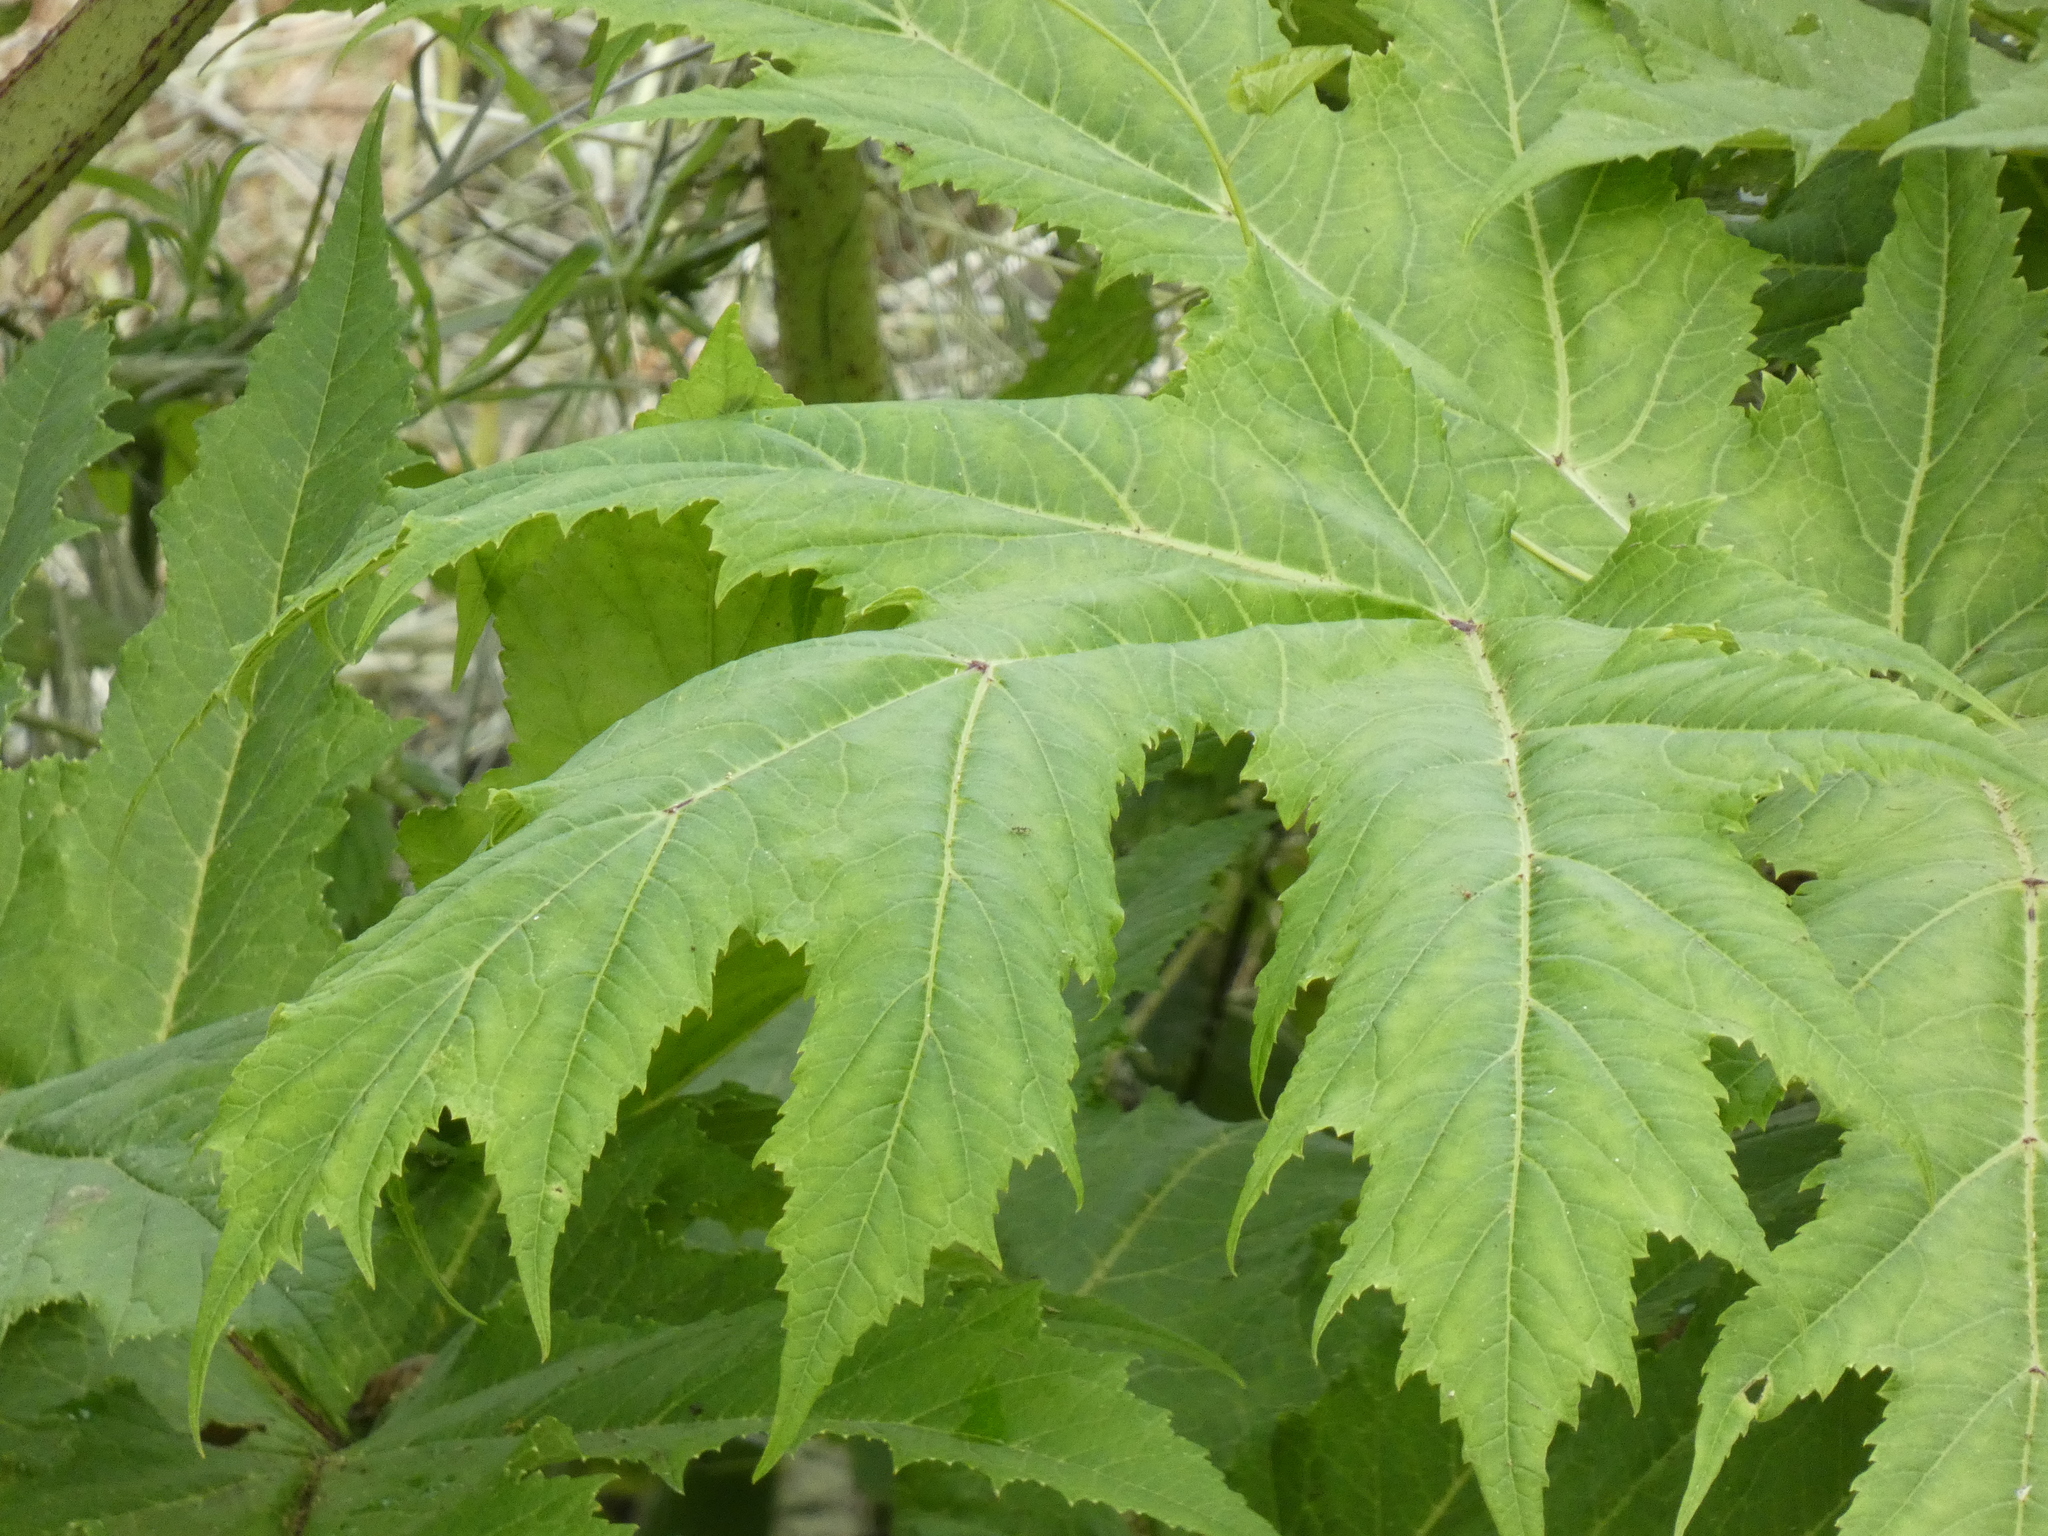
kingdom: Plantae
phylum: Tracheophyta
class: Magnoliopsida
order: Apiales
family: Apiaceae
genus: Heracleum
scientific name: Heracleum mantegazzianum
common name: Giant hogweed
